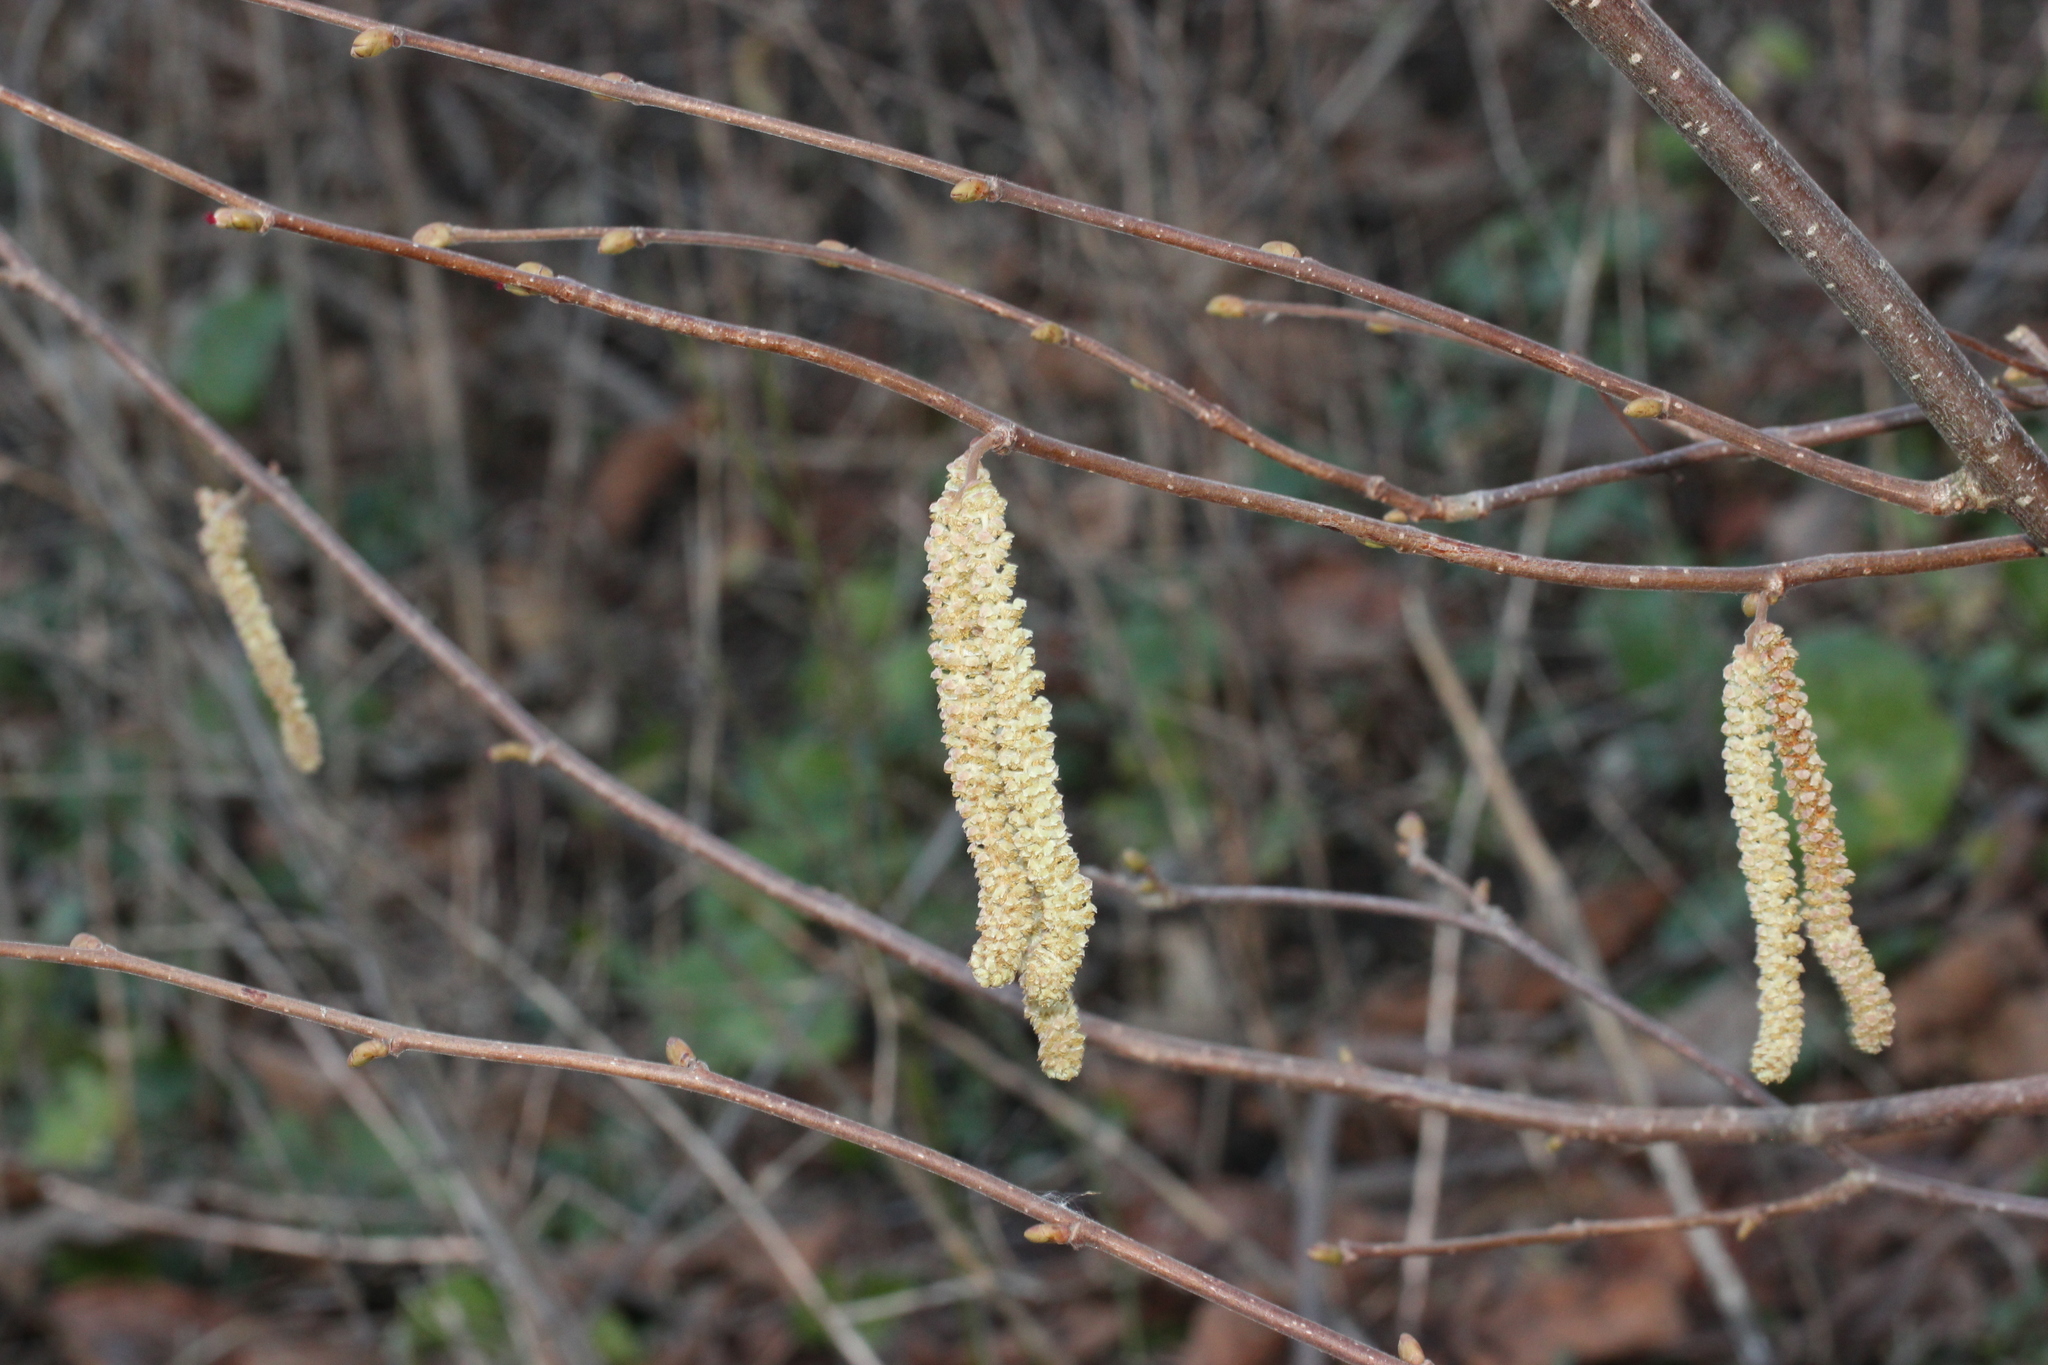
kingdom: Plantae
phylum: Tracheophyta
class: Magnoliopsida
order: Fagales
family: Betulaceae
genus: Corylus
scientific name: Corylus avellana
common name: European hazel
